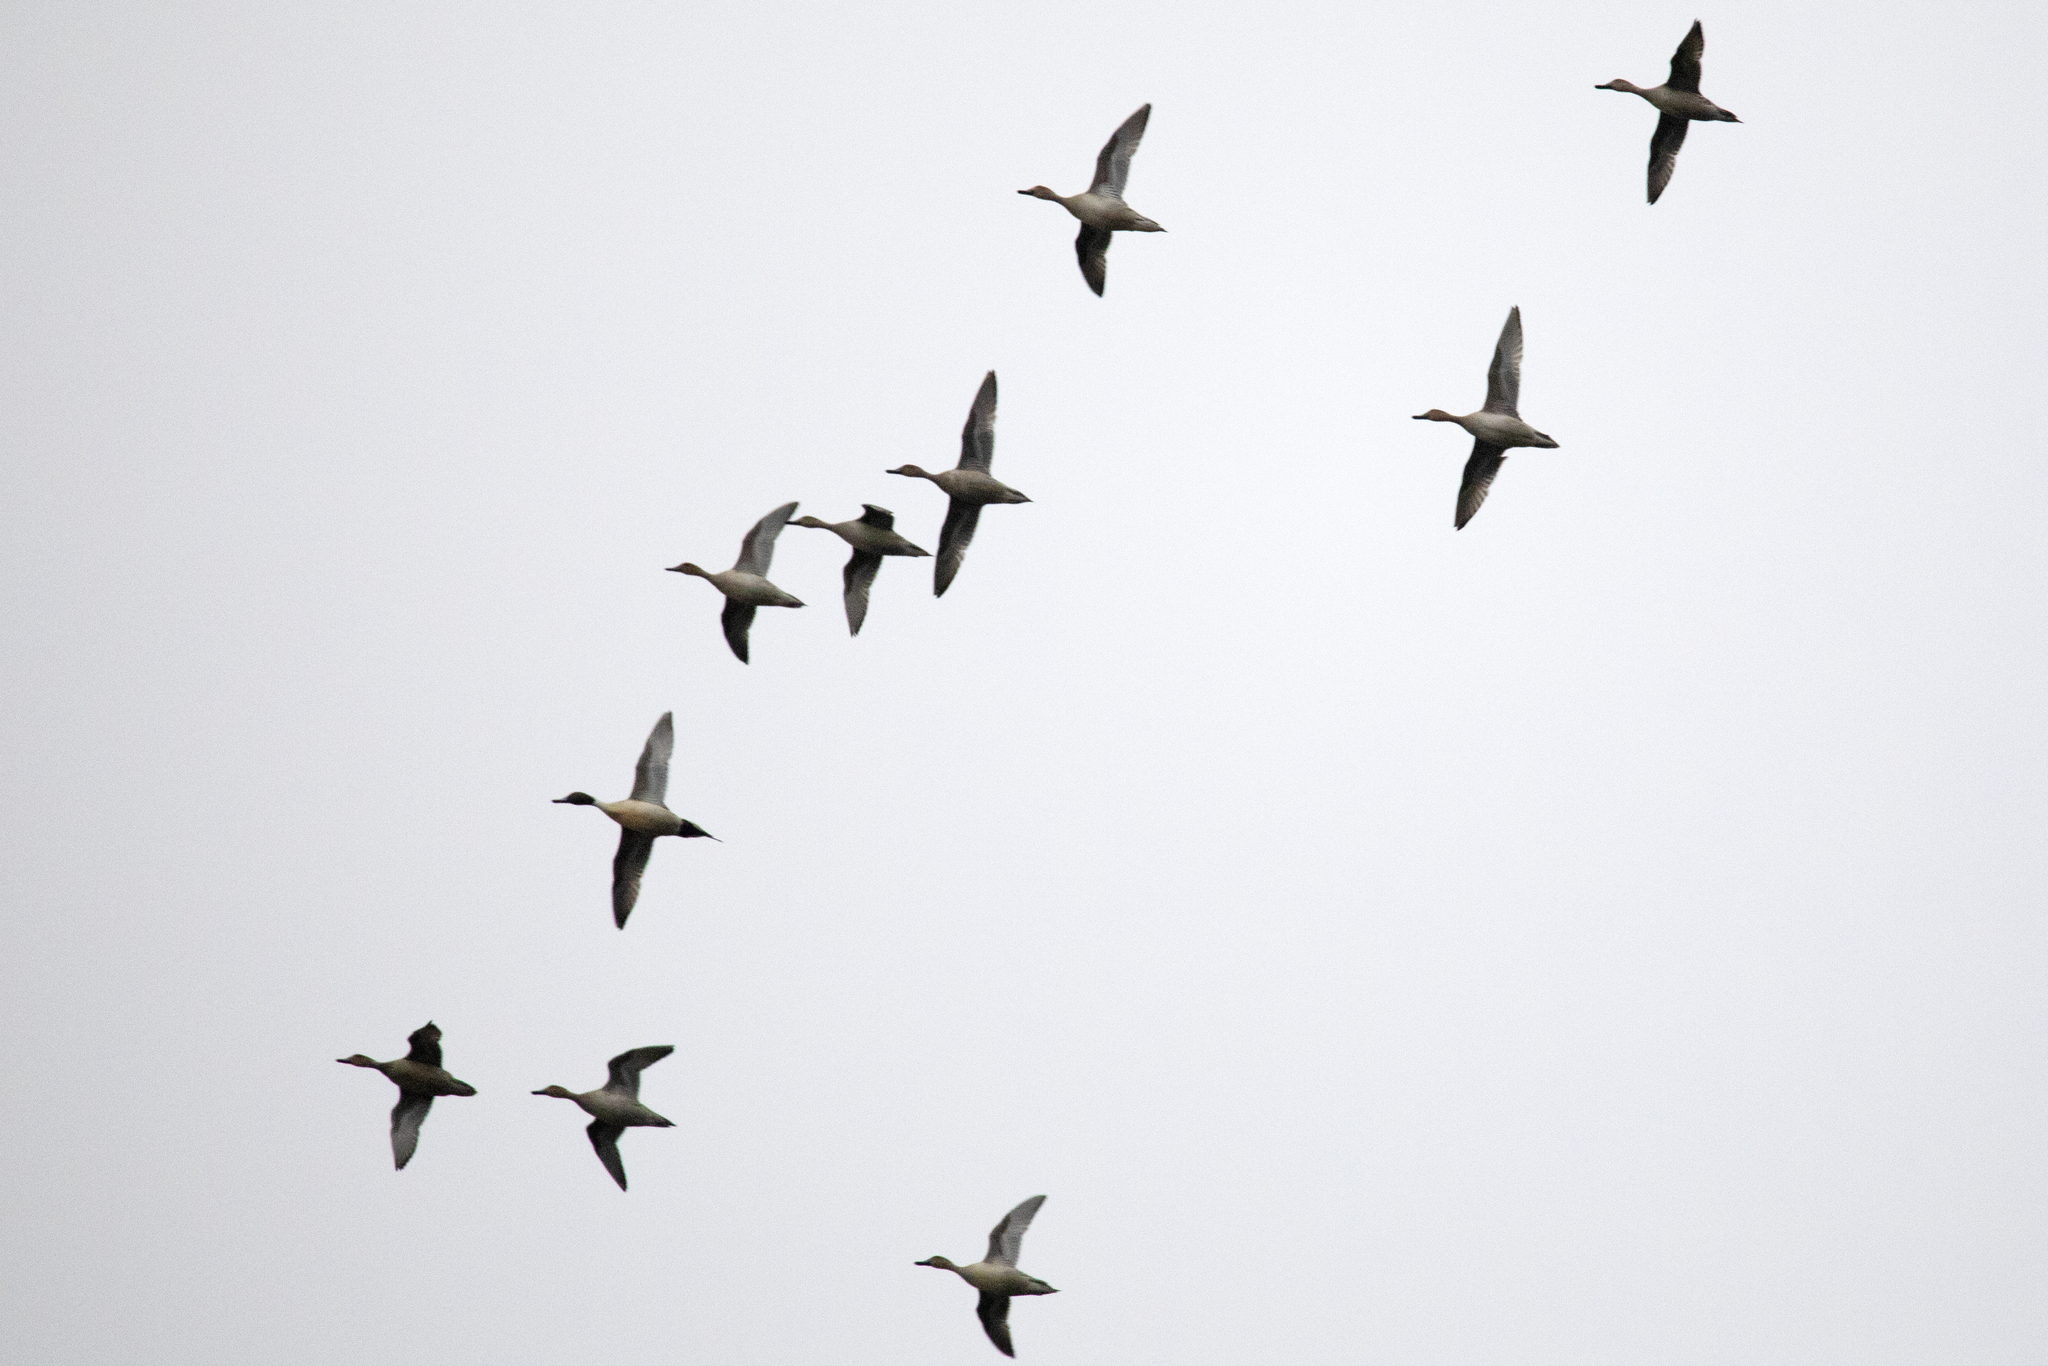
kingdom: Animalia
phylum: Chordata
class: Aves
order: Anseriformes
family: Anatidae
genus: Anas
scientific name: Anas acuta
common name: Northern pintail
